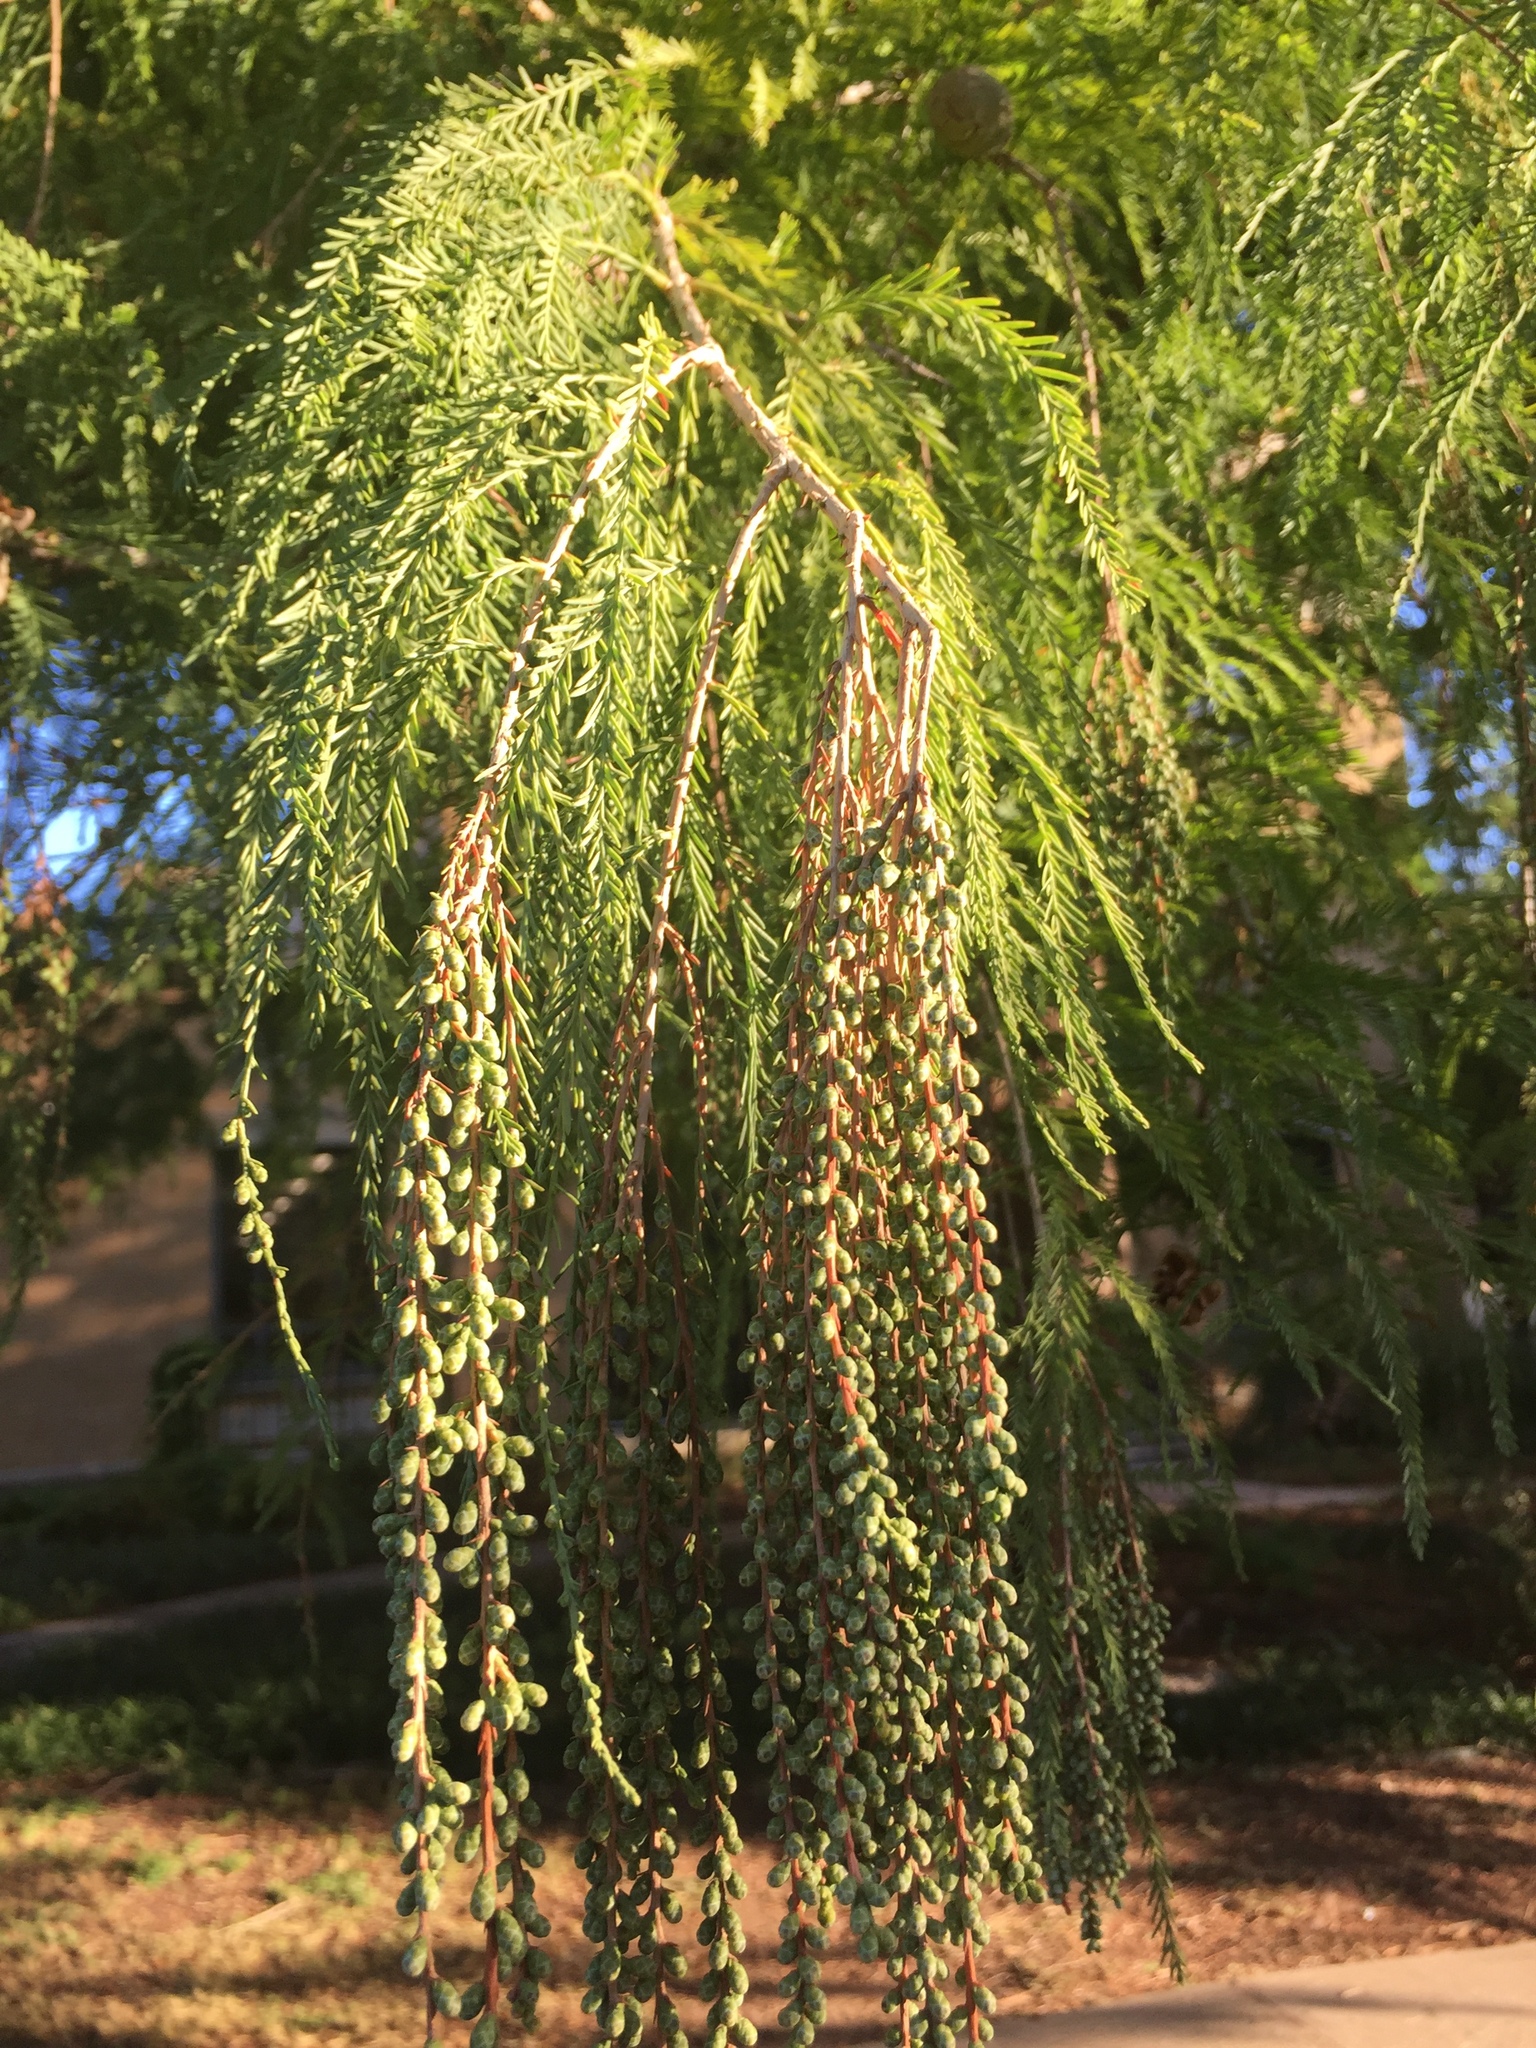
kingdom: Plantae
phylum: Tracheophyta
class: Pinopsida
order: Pinales
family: Cupressaceae
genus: Taxodium
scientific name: Taxodium distichum
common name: Bald cypress
